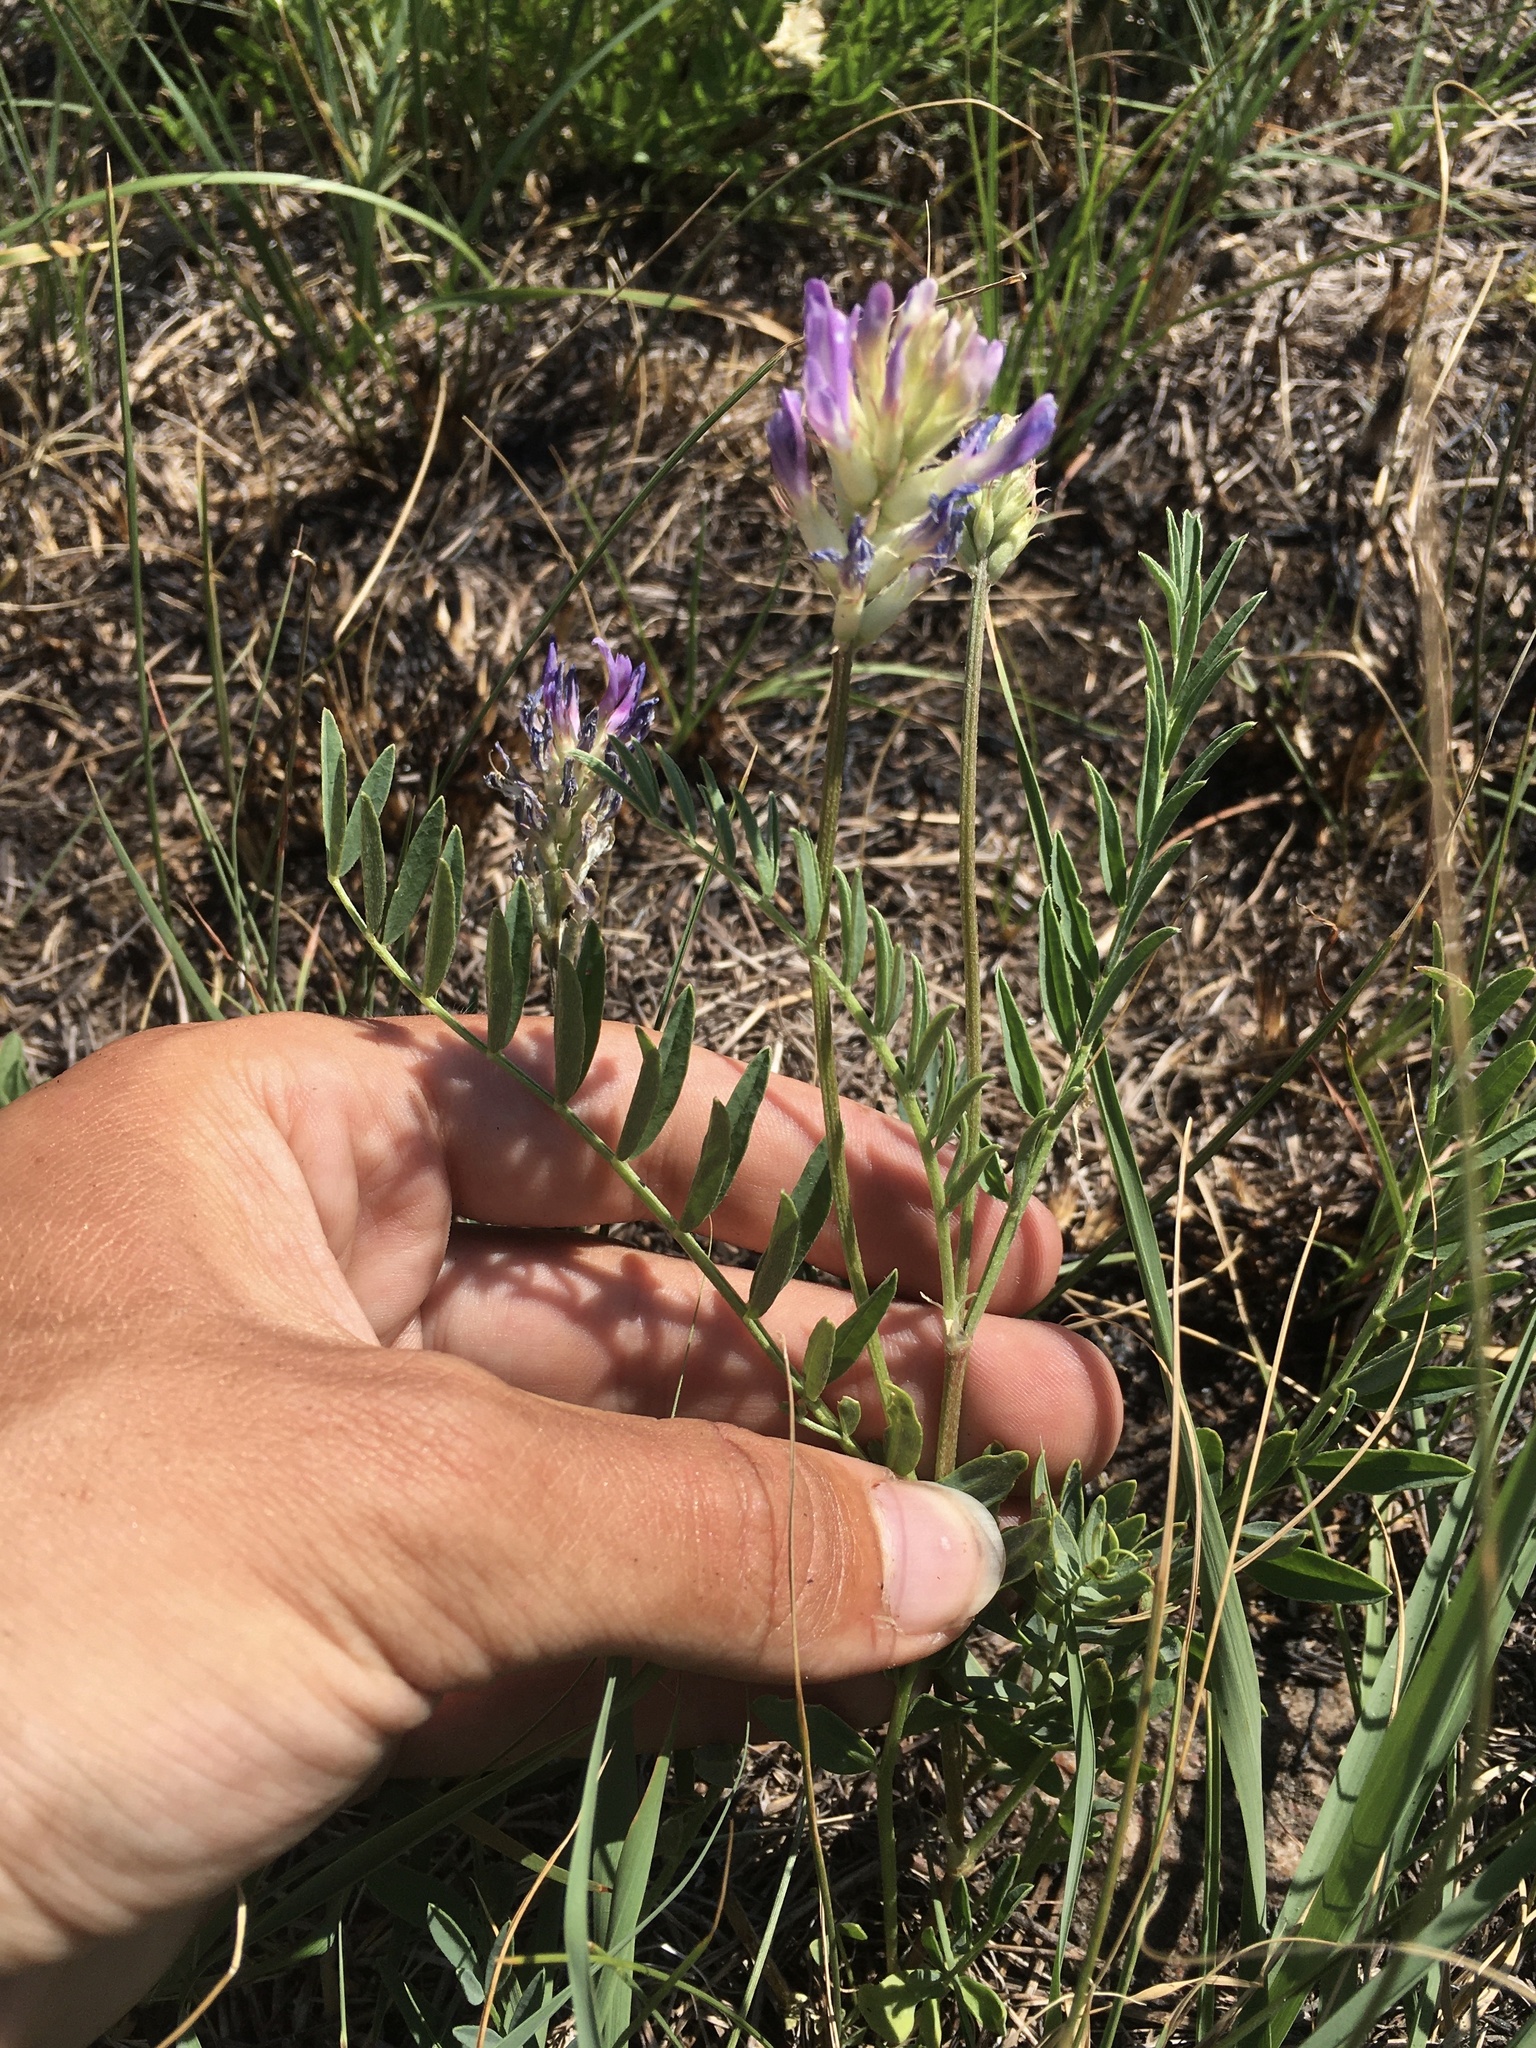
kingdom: Plantae
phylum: Tracheophyta
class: Magnoliopsida
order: Fabales
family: Fabaceae
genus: Astragalus
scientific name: Astragalus laxmannii
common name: Laxmann's milk-vetch
